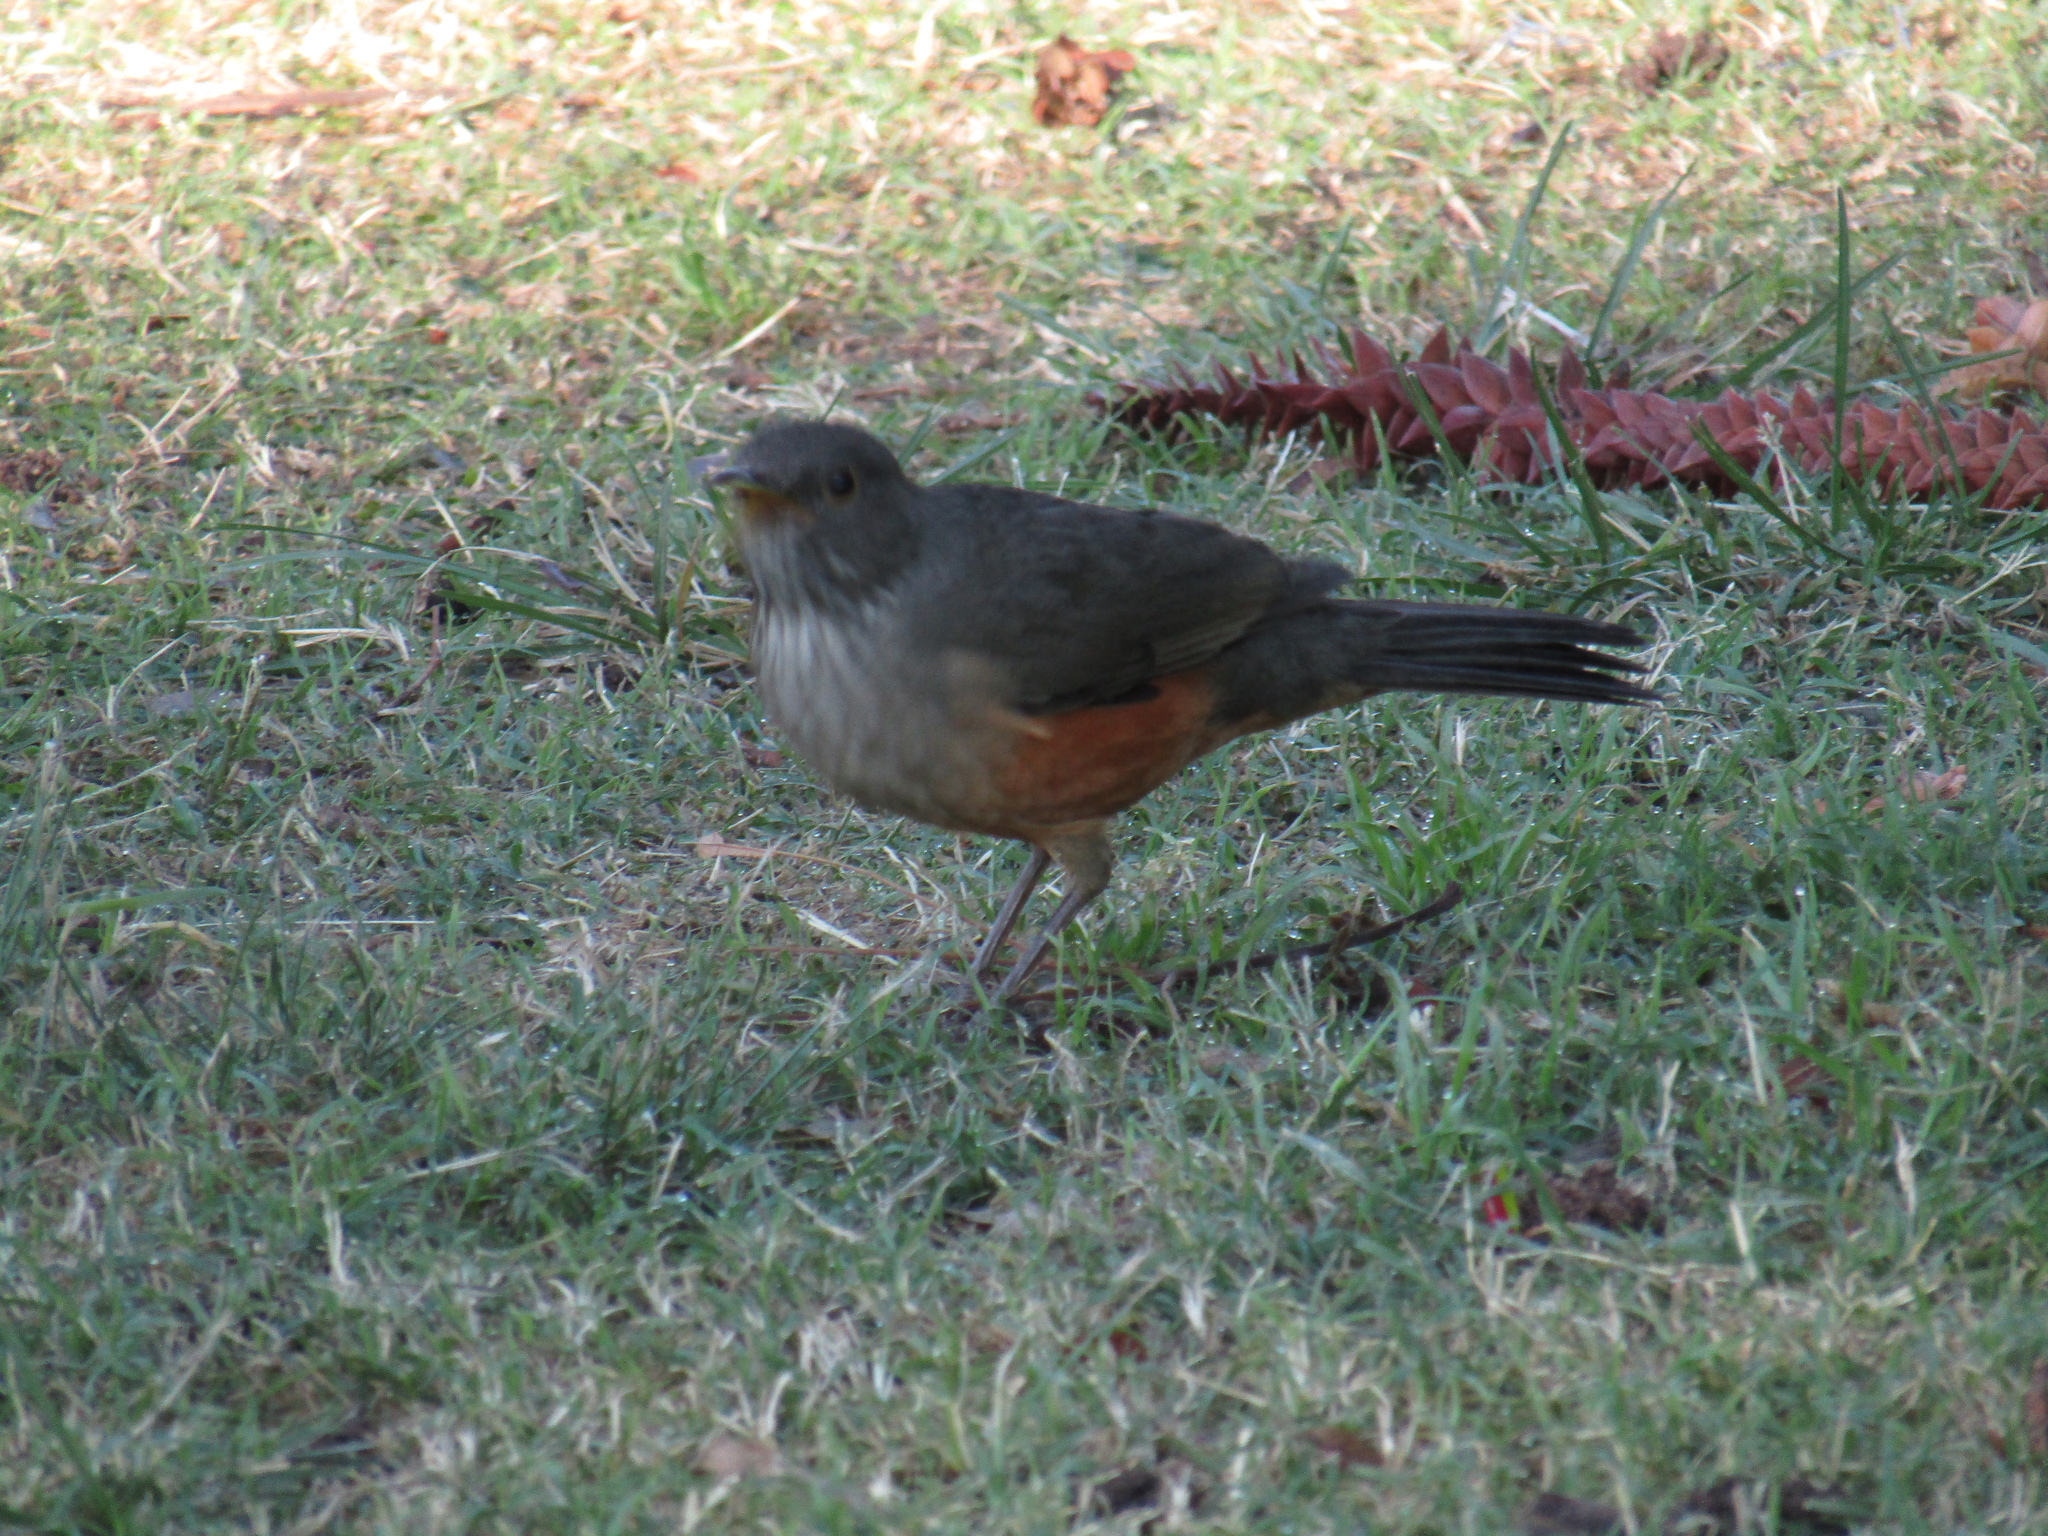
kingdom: Animalia
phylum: Chordata
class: Aves
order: Passeriformes
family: Turdidae
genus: Turdus
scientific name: Turdus rufiventris
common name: Rufous-bellied thrush
